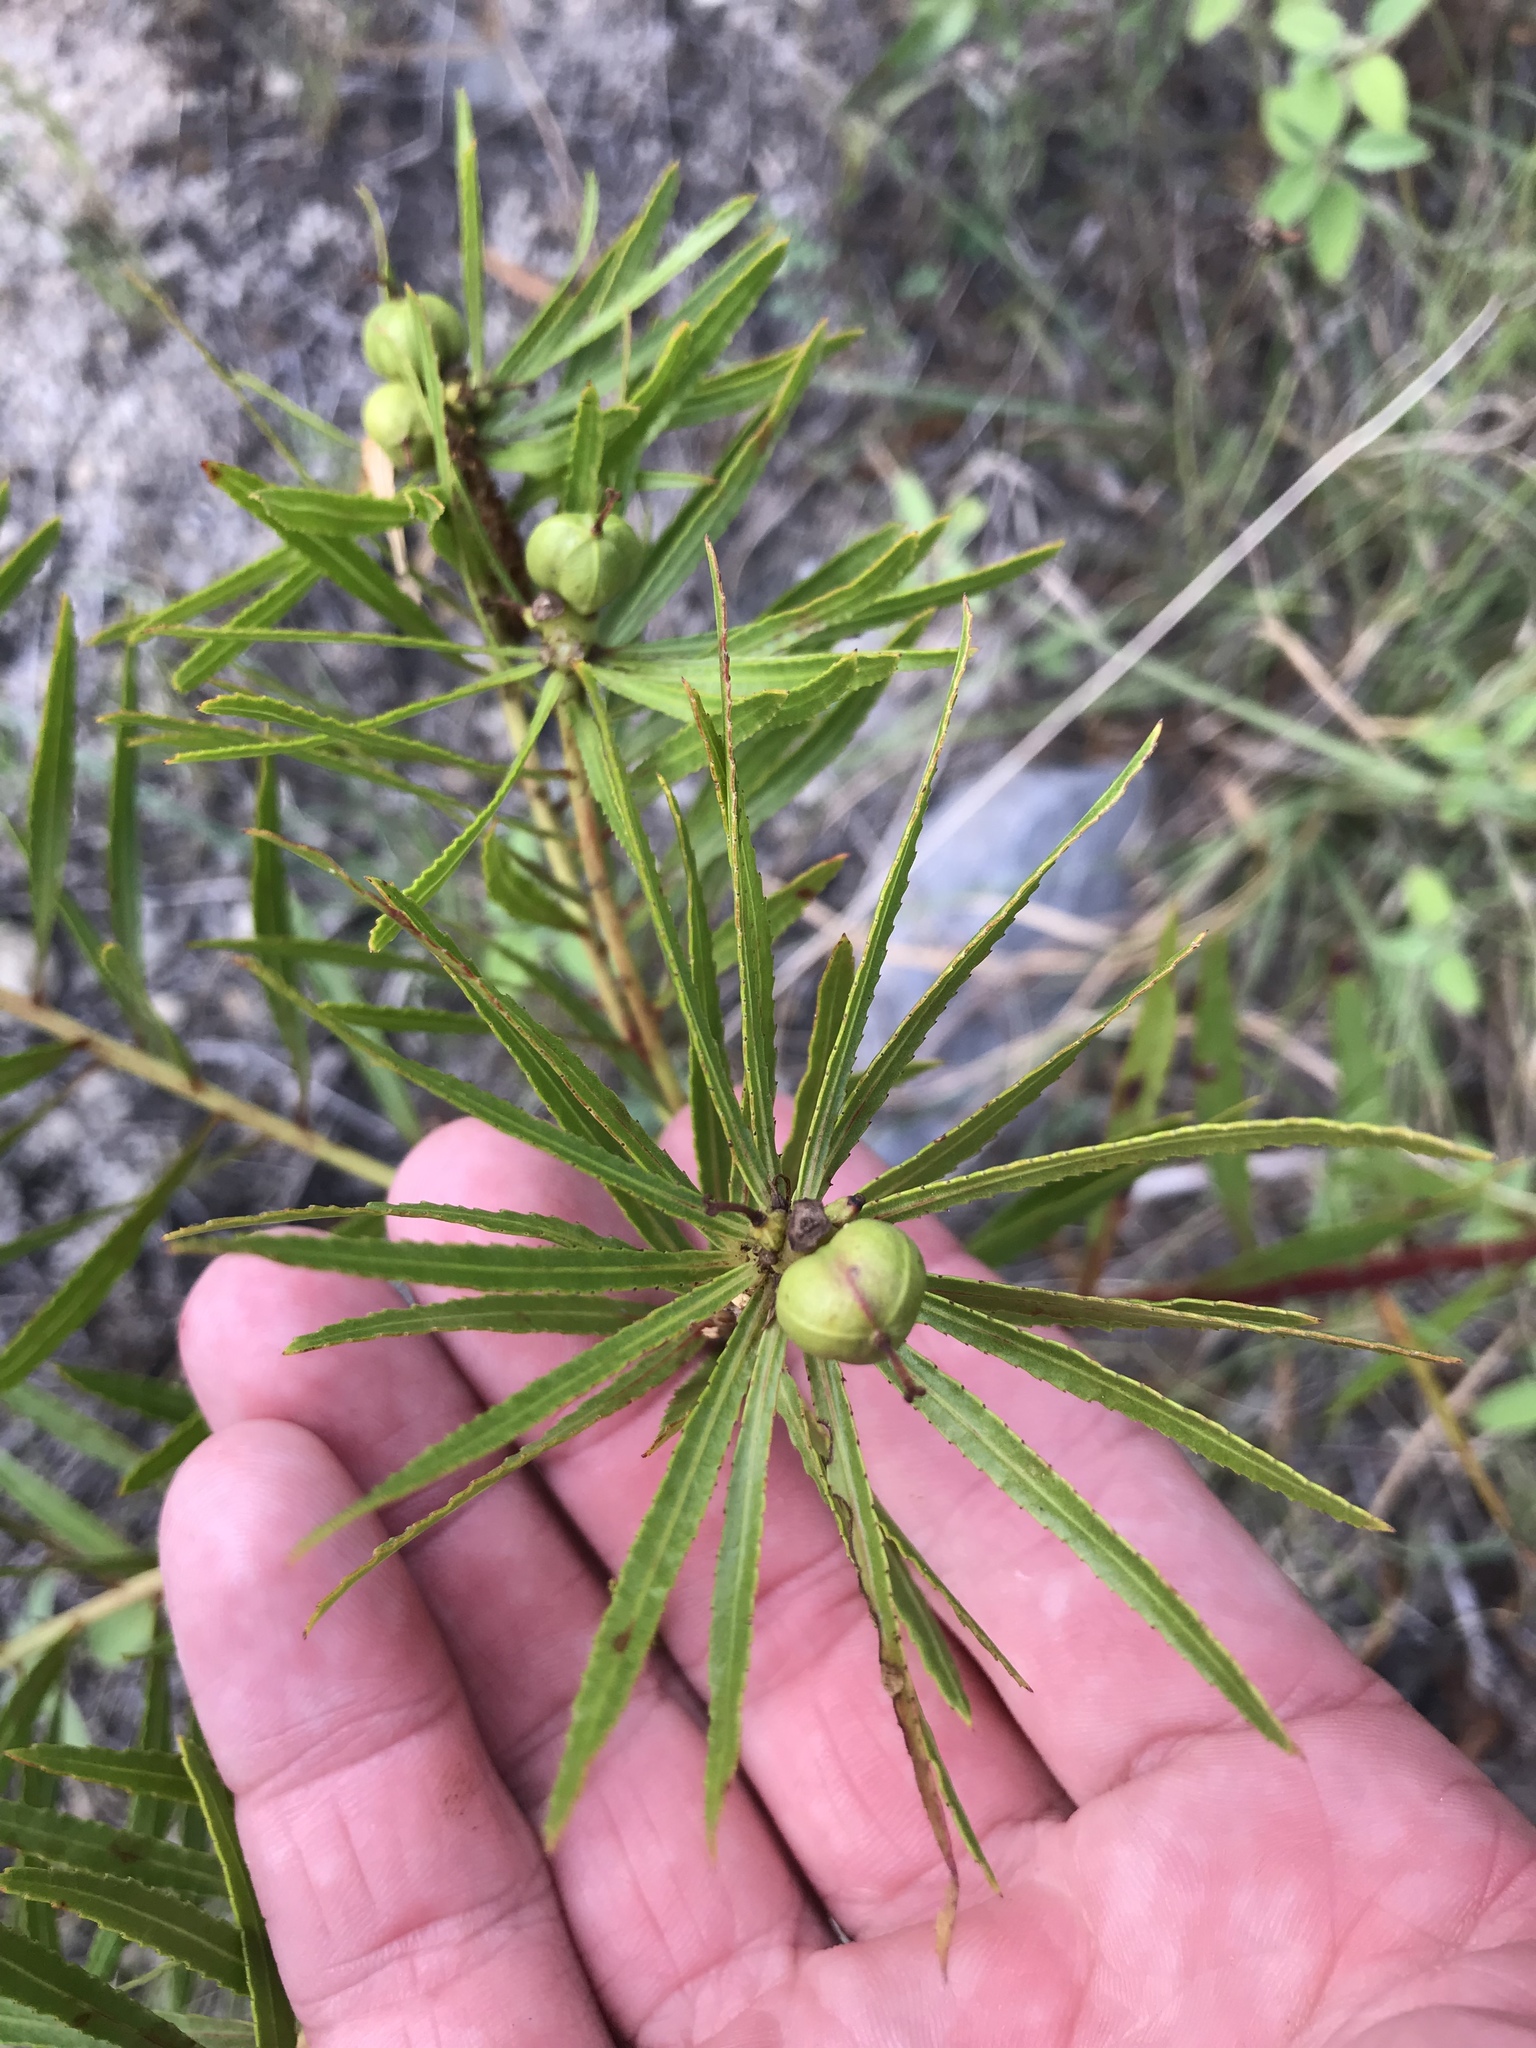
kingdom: Plantae
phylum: Tracheophyta
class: Magnoliopsida
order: Malpighiales
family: Euphorbiaceae
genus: Stillingia
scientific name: Stillingia texana
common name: Texas stillingia
